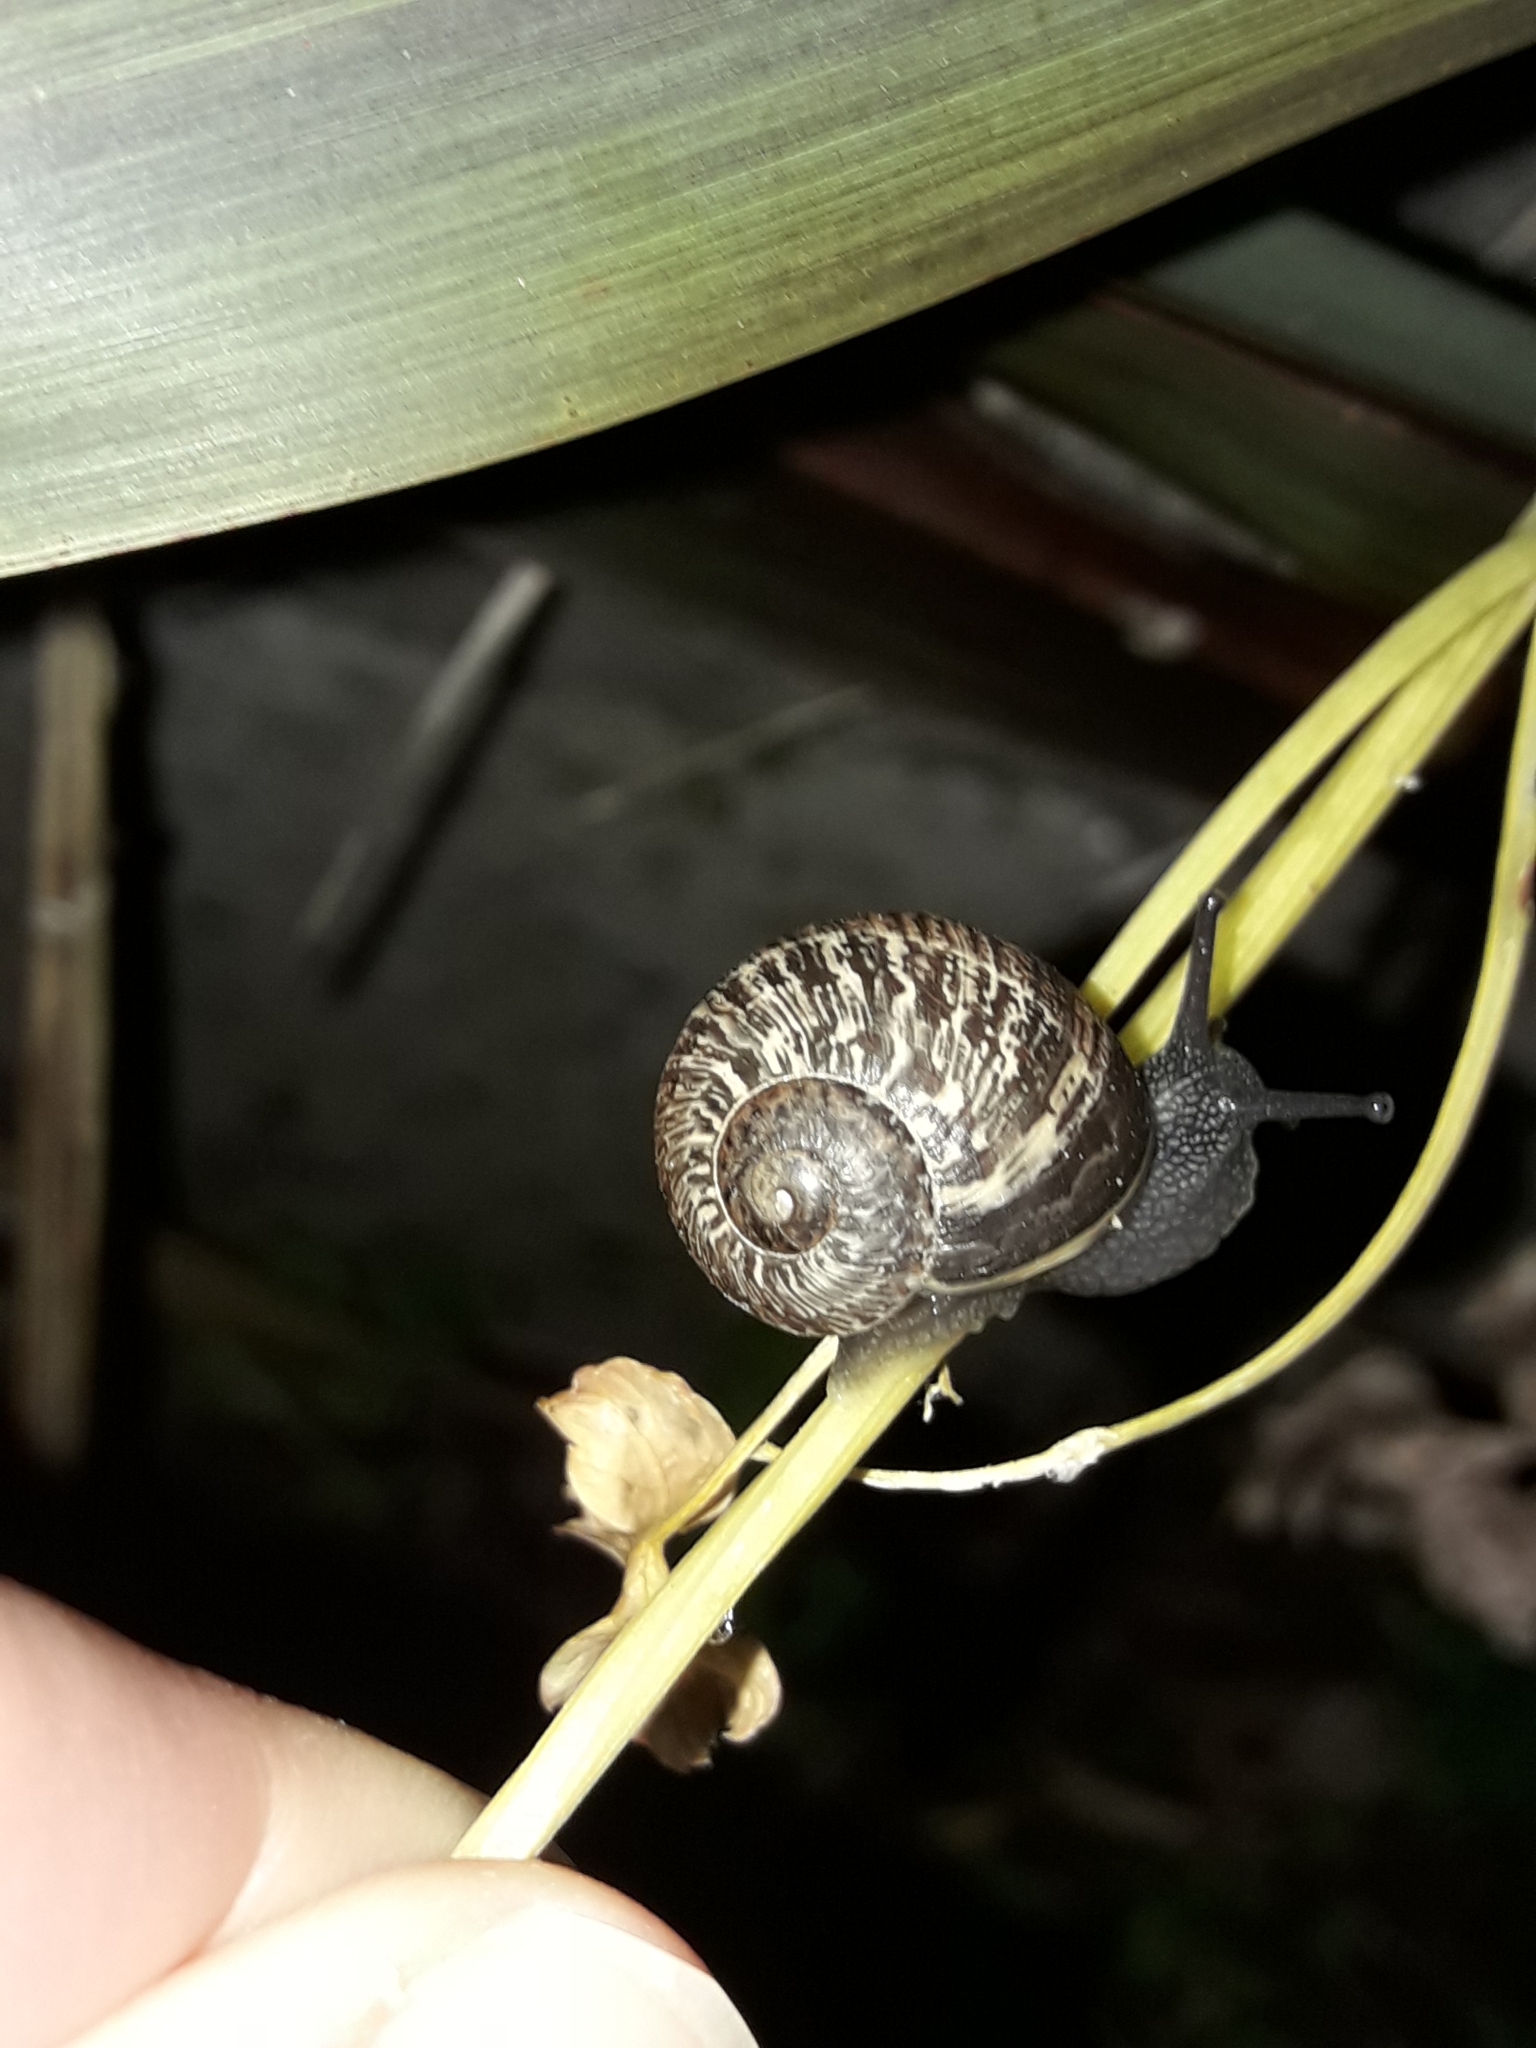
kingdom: Animalia
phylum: Mollusca
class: Gastropoda
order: Stylommatophora
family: Helicidae
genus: Cornu
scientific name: Cornu aspersum
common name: Brown garden snail
